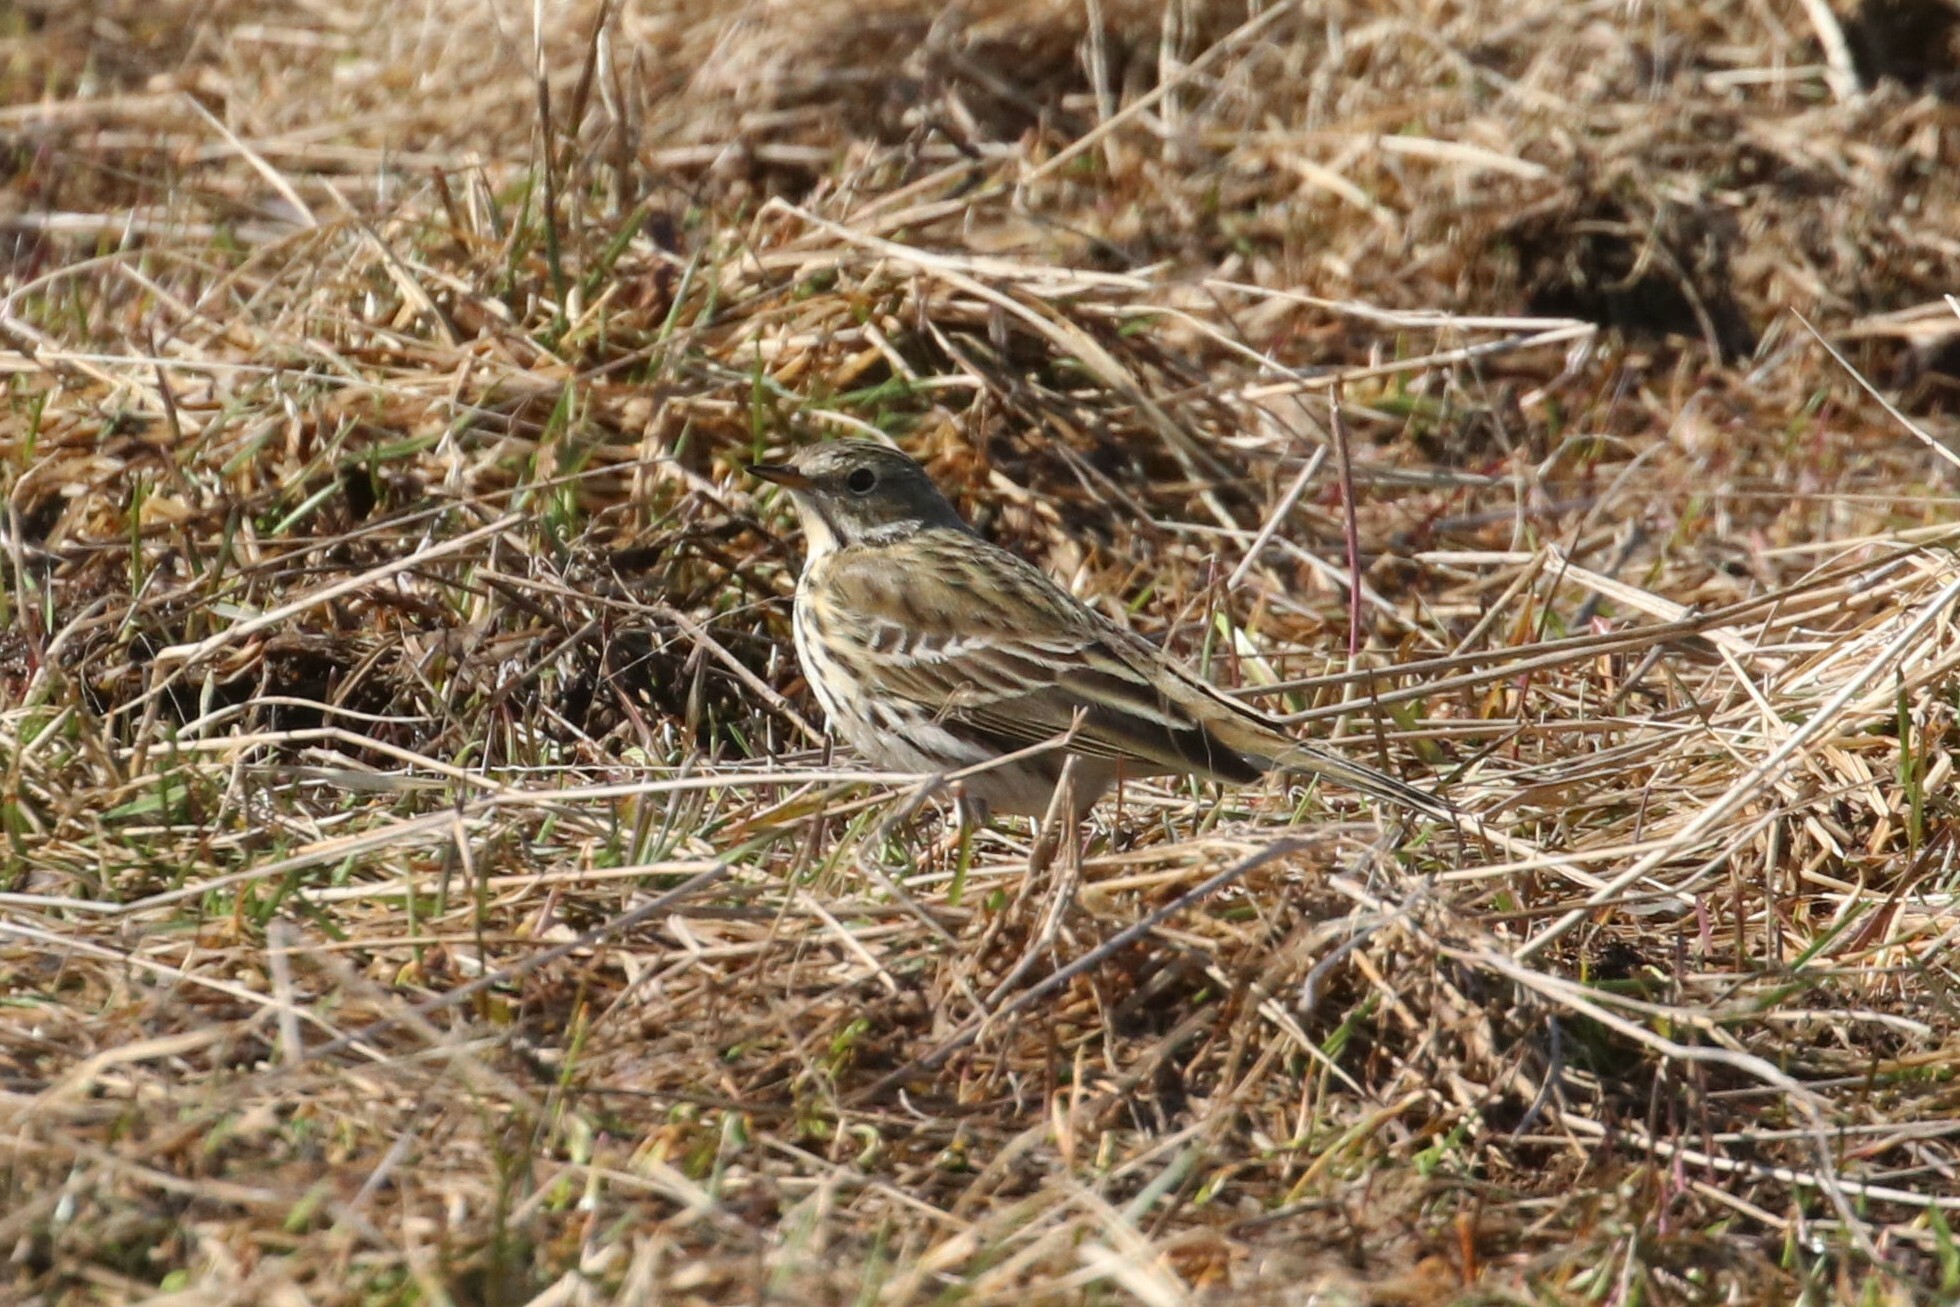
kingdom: Animalia
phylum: Chordata
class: Aves
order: Passeriformes
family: Motacillidae
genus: Anthus
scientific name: Anthus pratensis
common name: Meadow pipit
